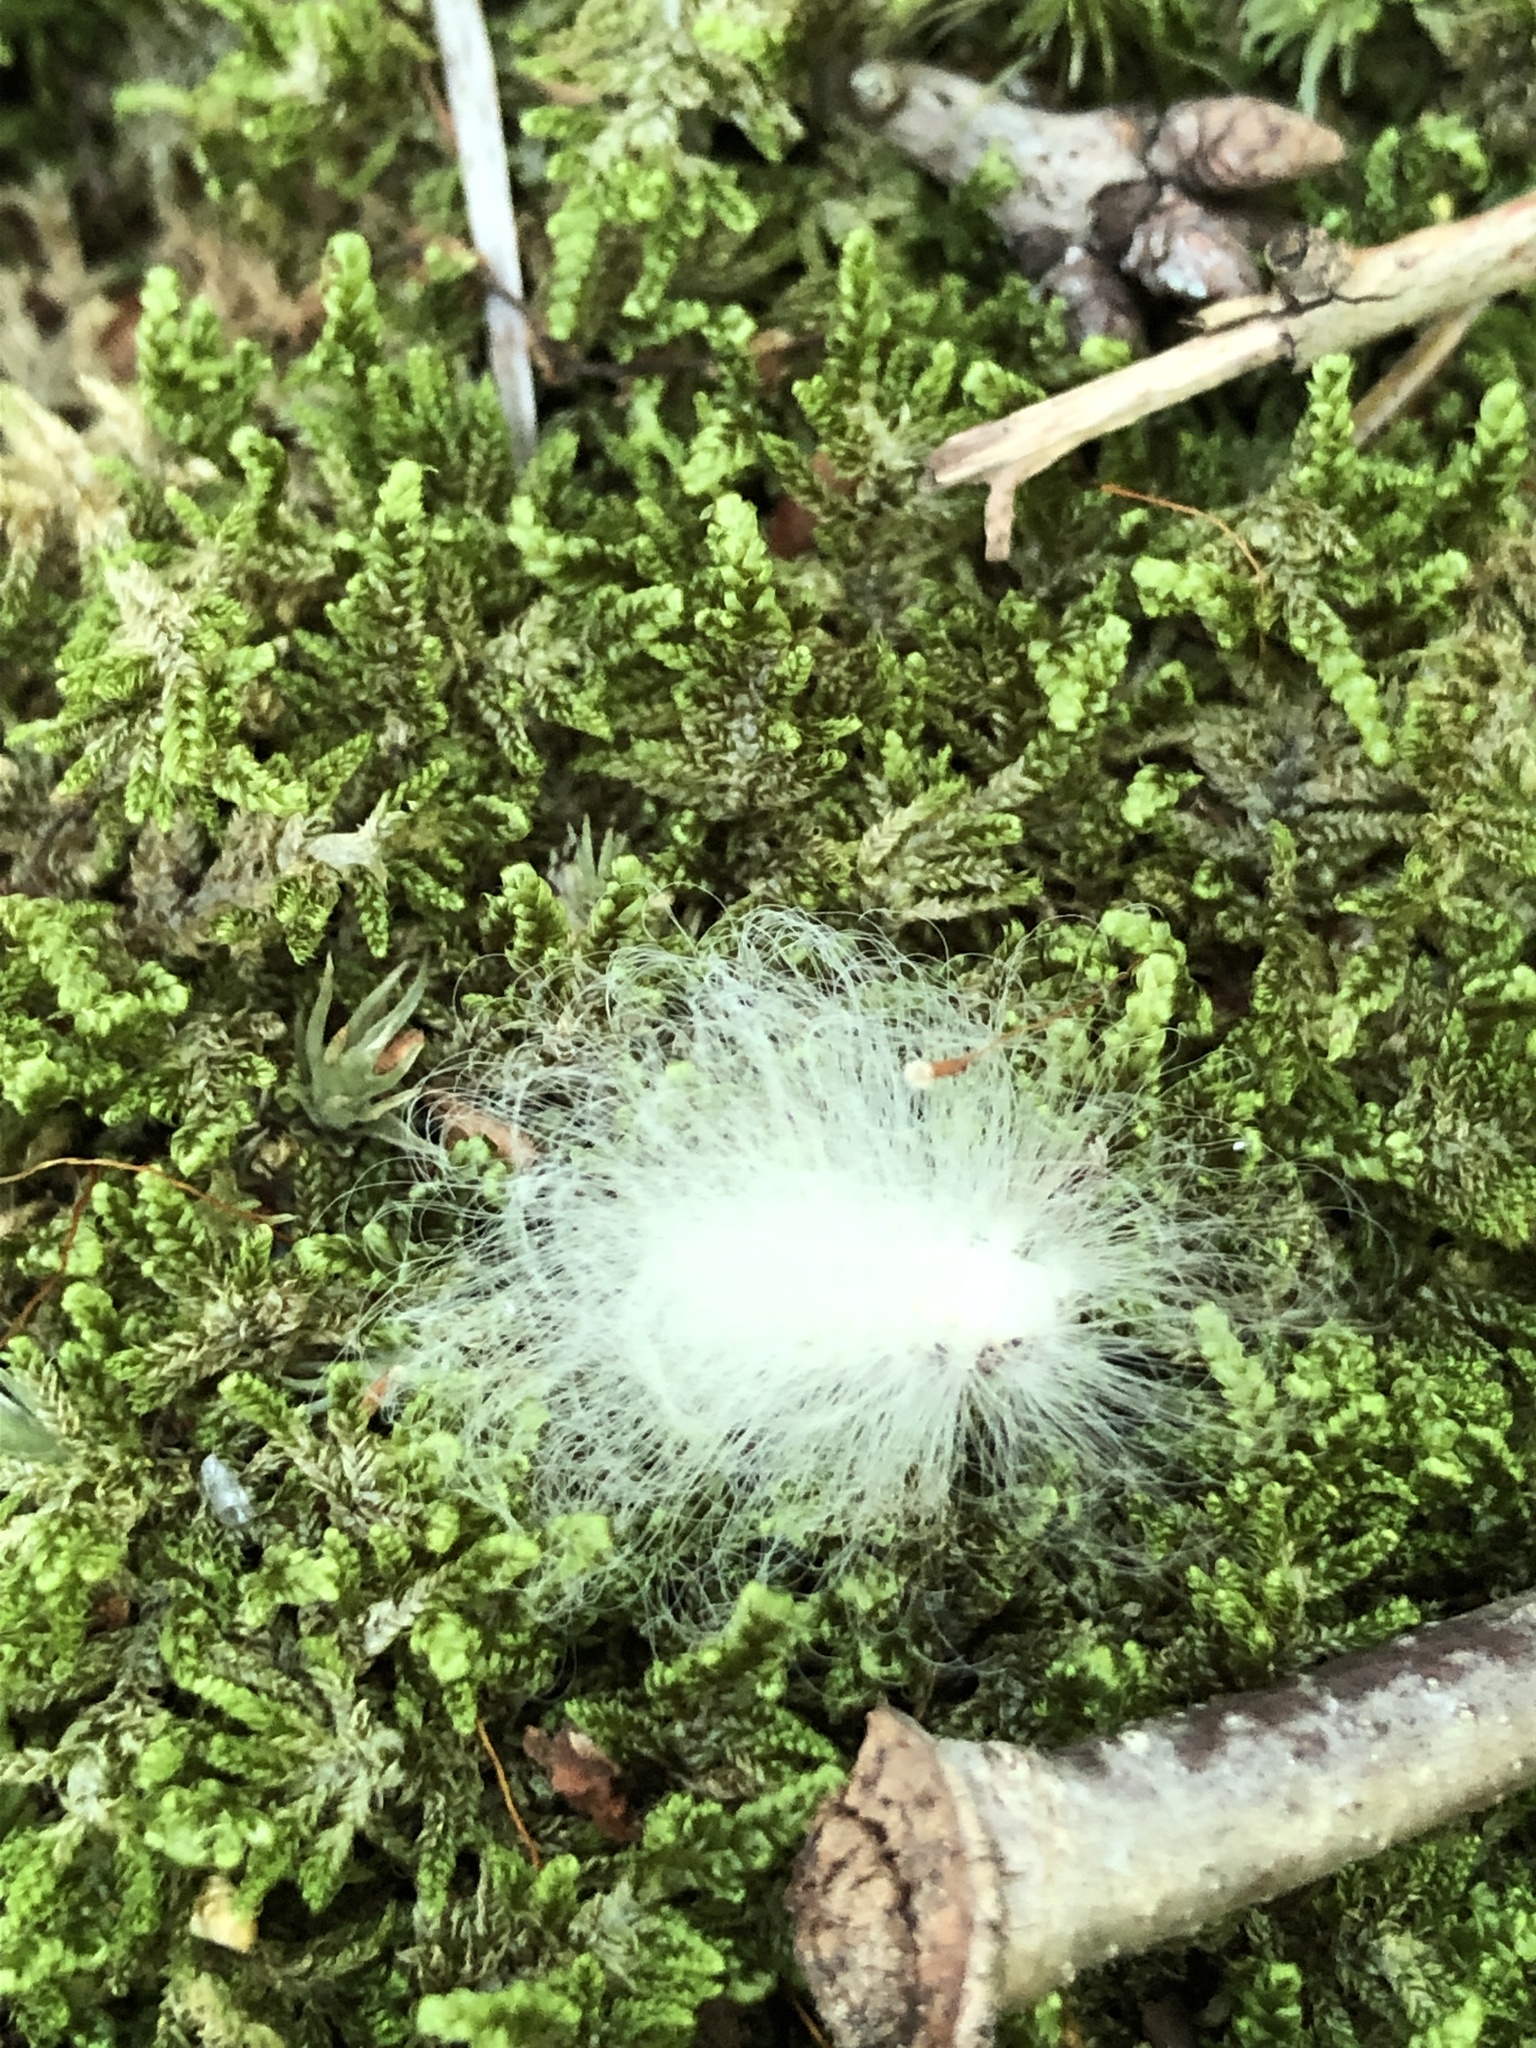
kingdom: Animalia
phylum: Arthropoda
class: Insecta
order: Lepidoptera
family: Megalopygidae
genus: Megalopyge
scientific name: Megalopyge crispata
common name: Black-waved flannel moth
